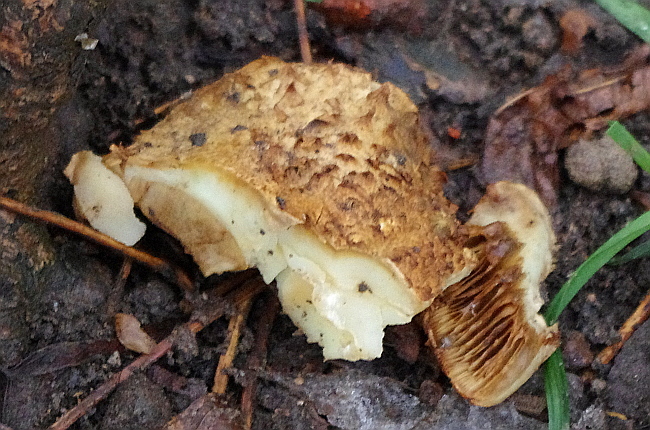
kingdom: Fungi
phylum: Basidiomycota
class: Agaricomycetes
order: Agaricales
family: Strophariaceae
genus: Pholiota
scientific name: Pholiota squarrosa
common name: Shaggy pholiota
